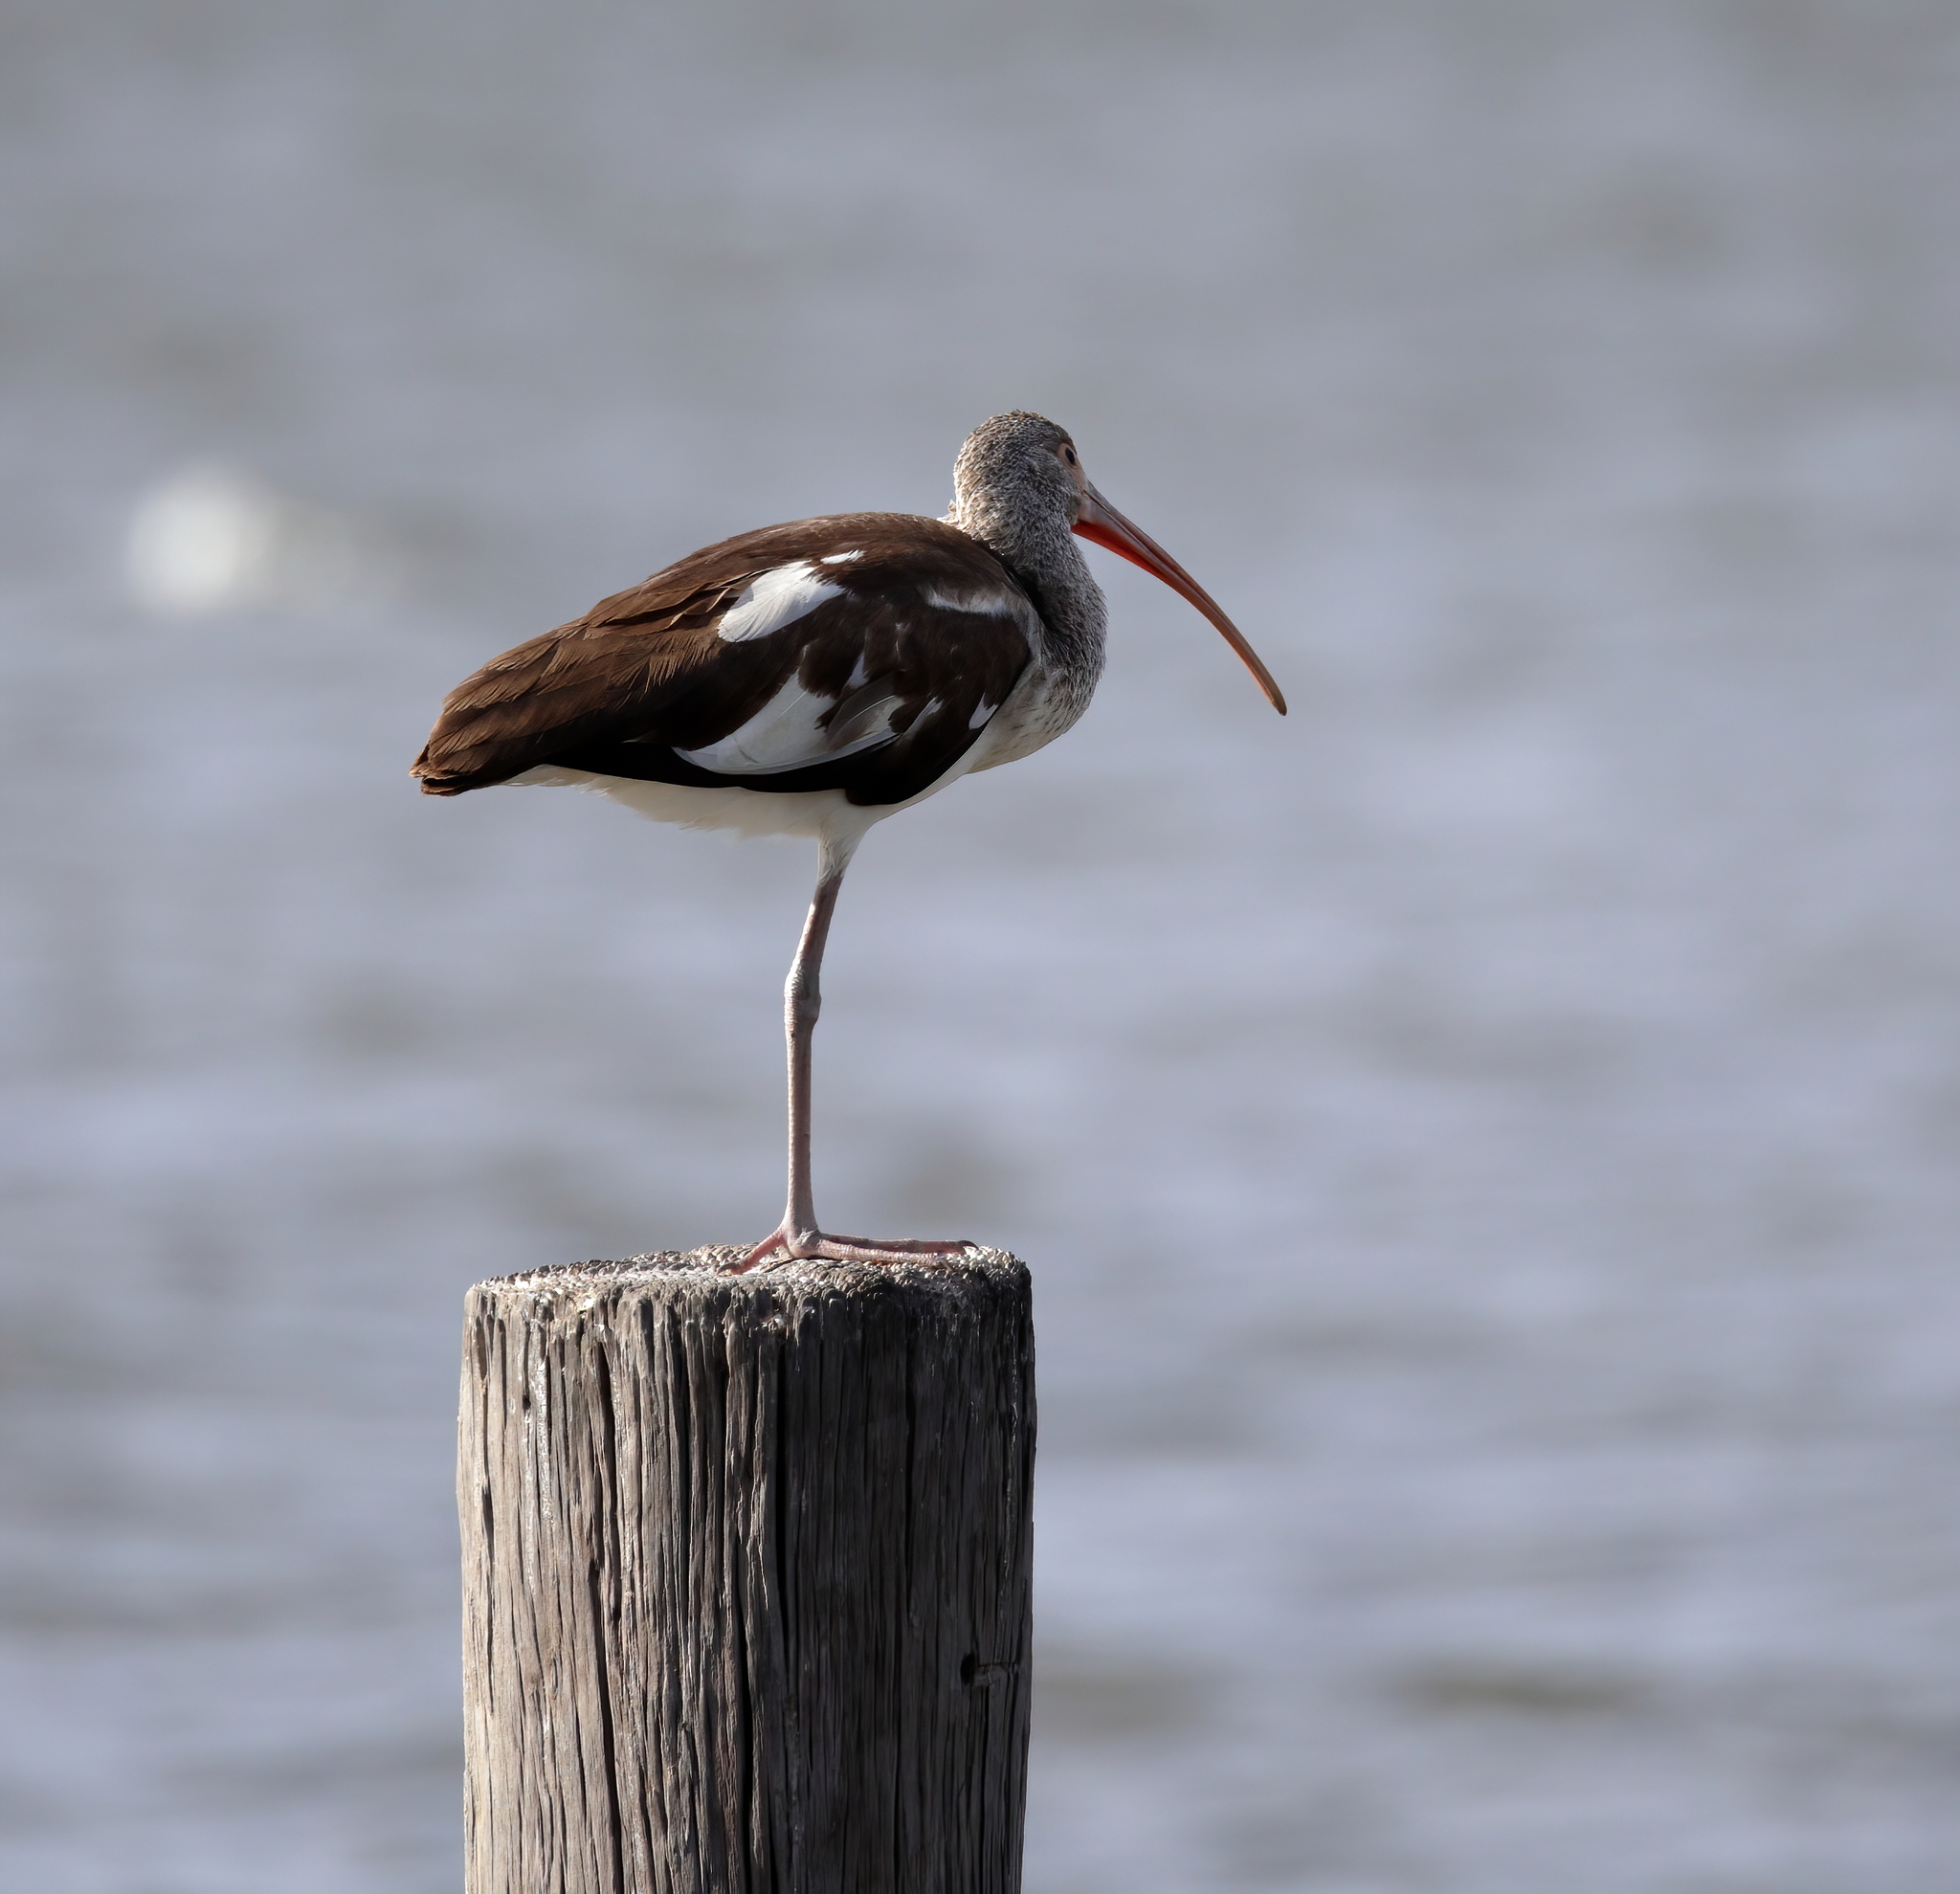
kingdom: Animalia
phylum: Chordata
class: Aves
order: Pelecaniformes
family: Threskiornithidae
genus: Eudocimus
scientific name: Eudocimus albus
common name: White ibis
